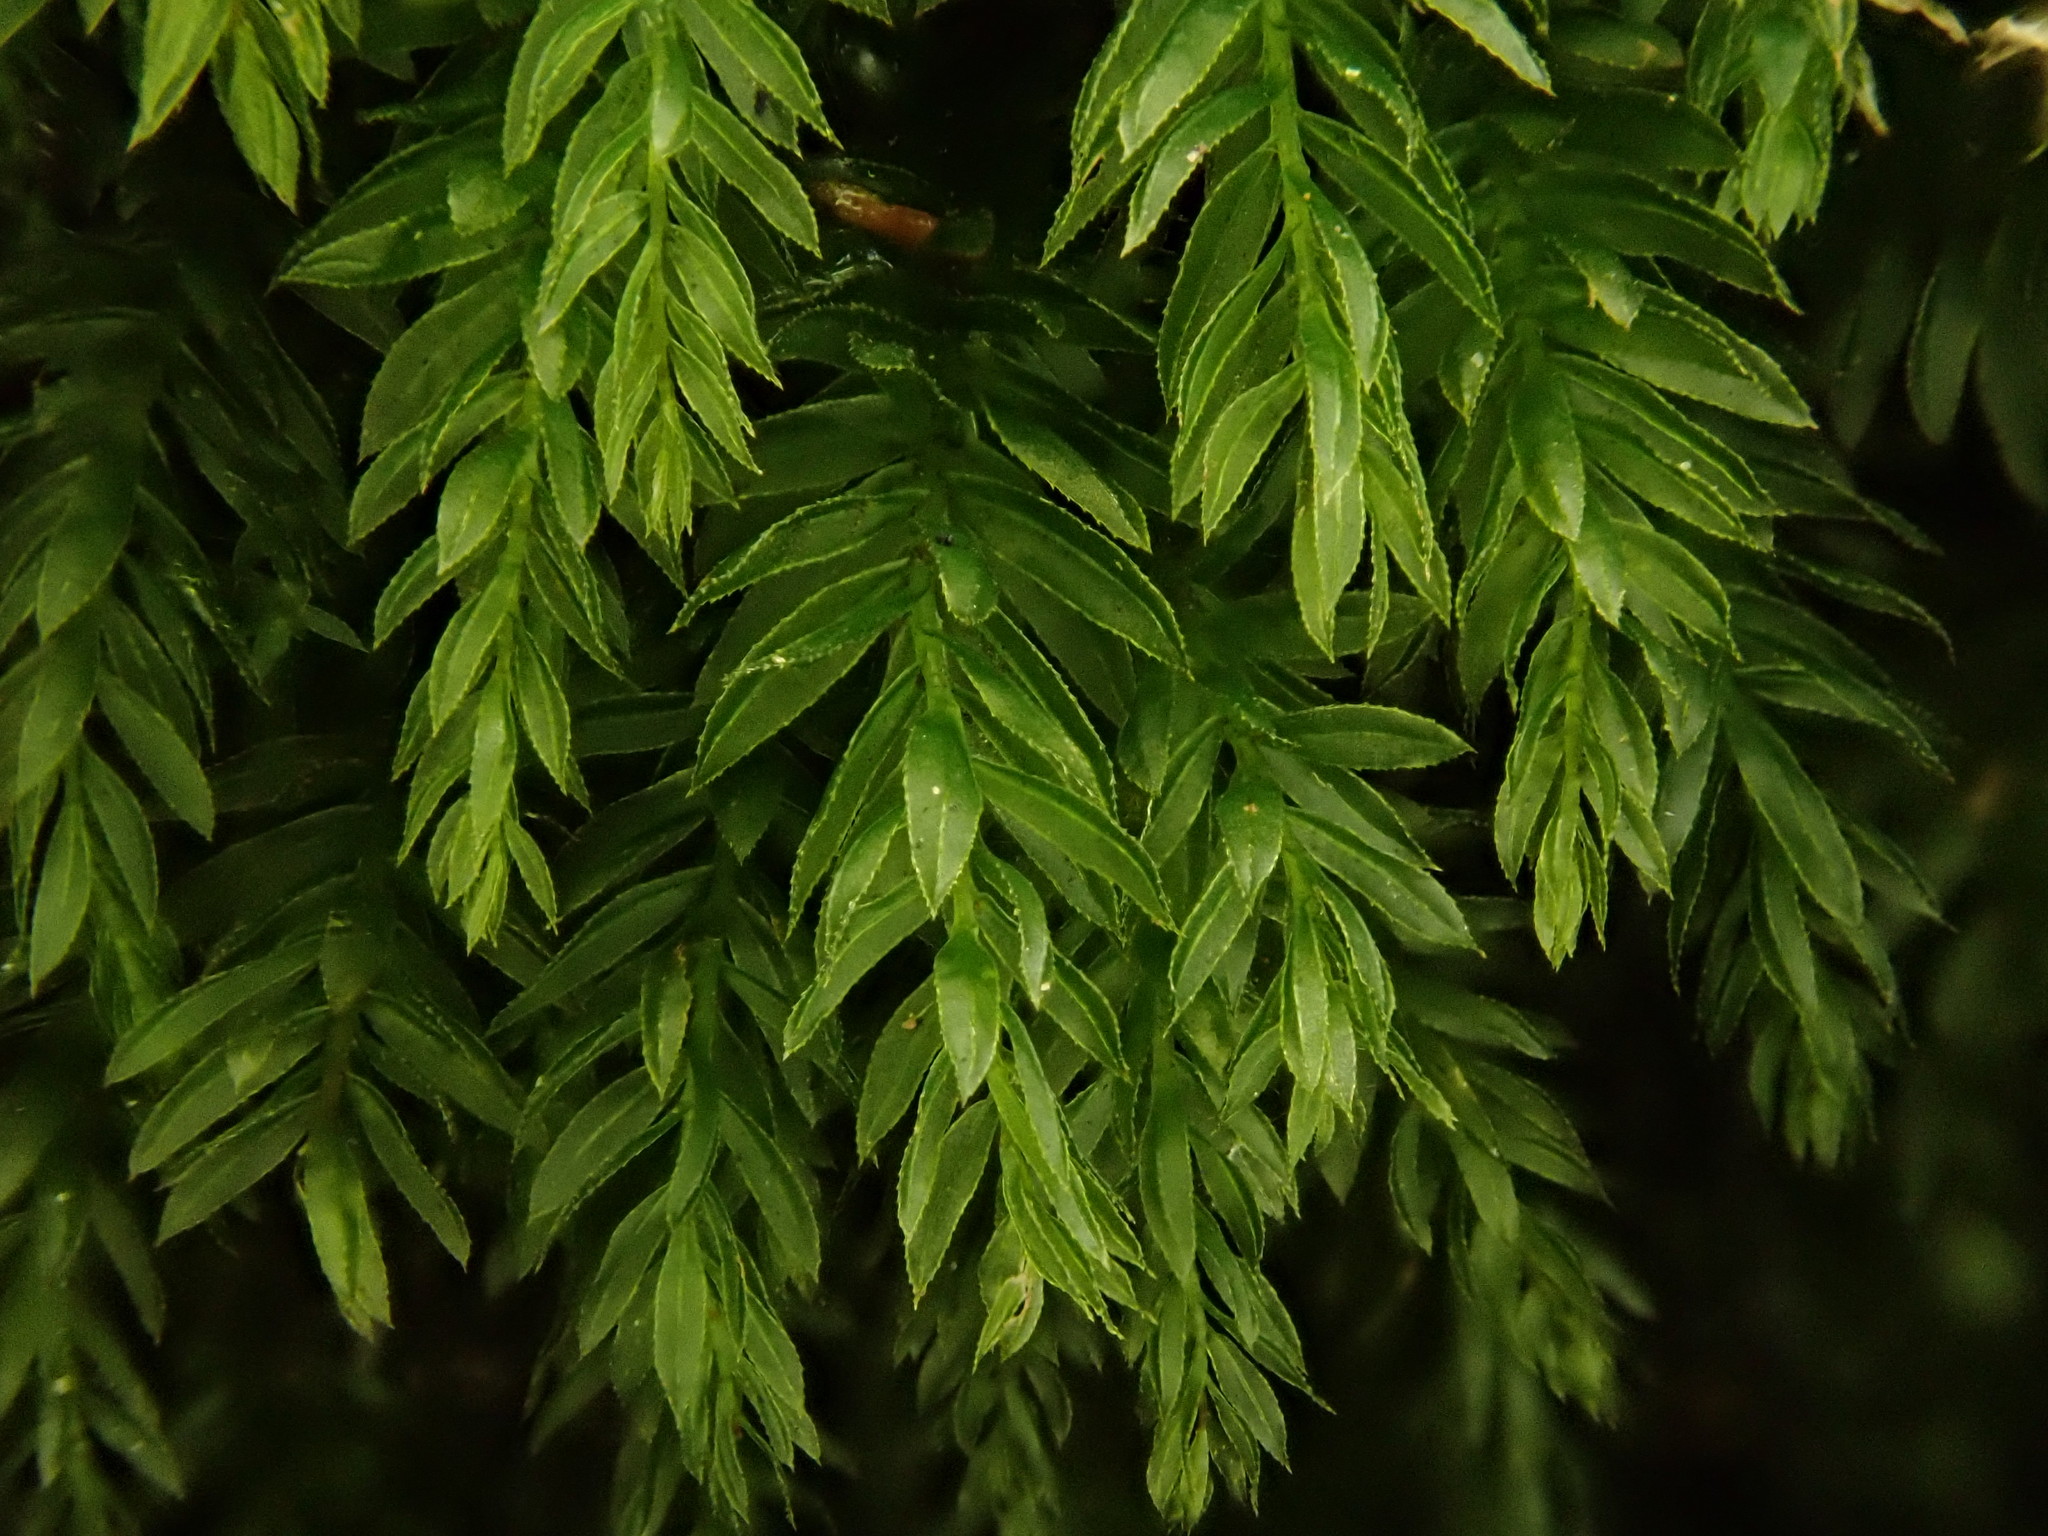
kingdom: Plantae
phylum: Bryophyta
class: Bryopsida
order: Bryales
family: Mniaceae
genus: Mnium
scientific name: Mnium hornum
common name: Swan's-neck leafy moss
